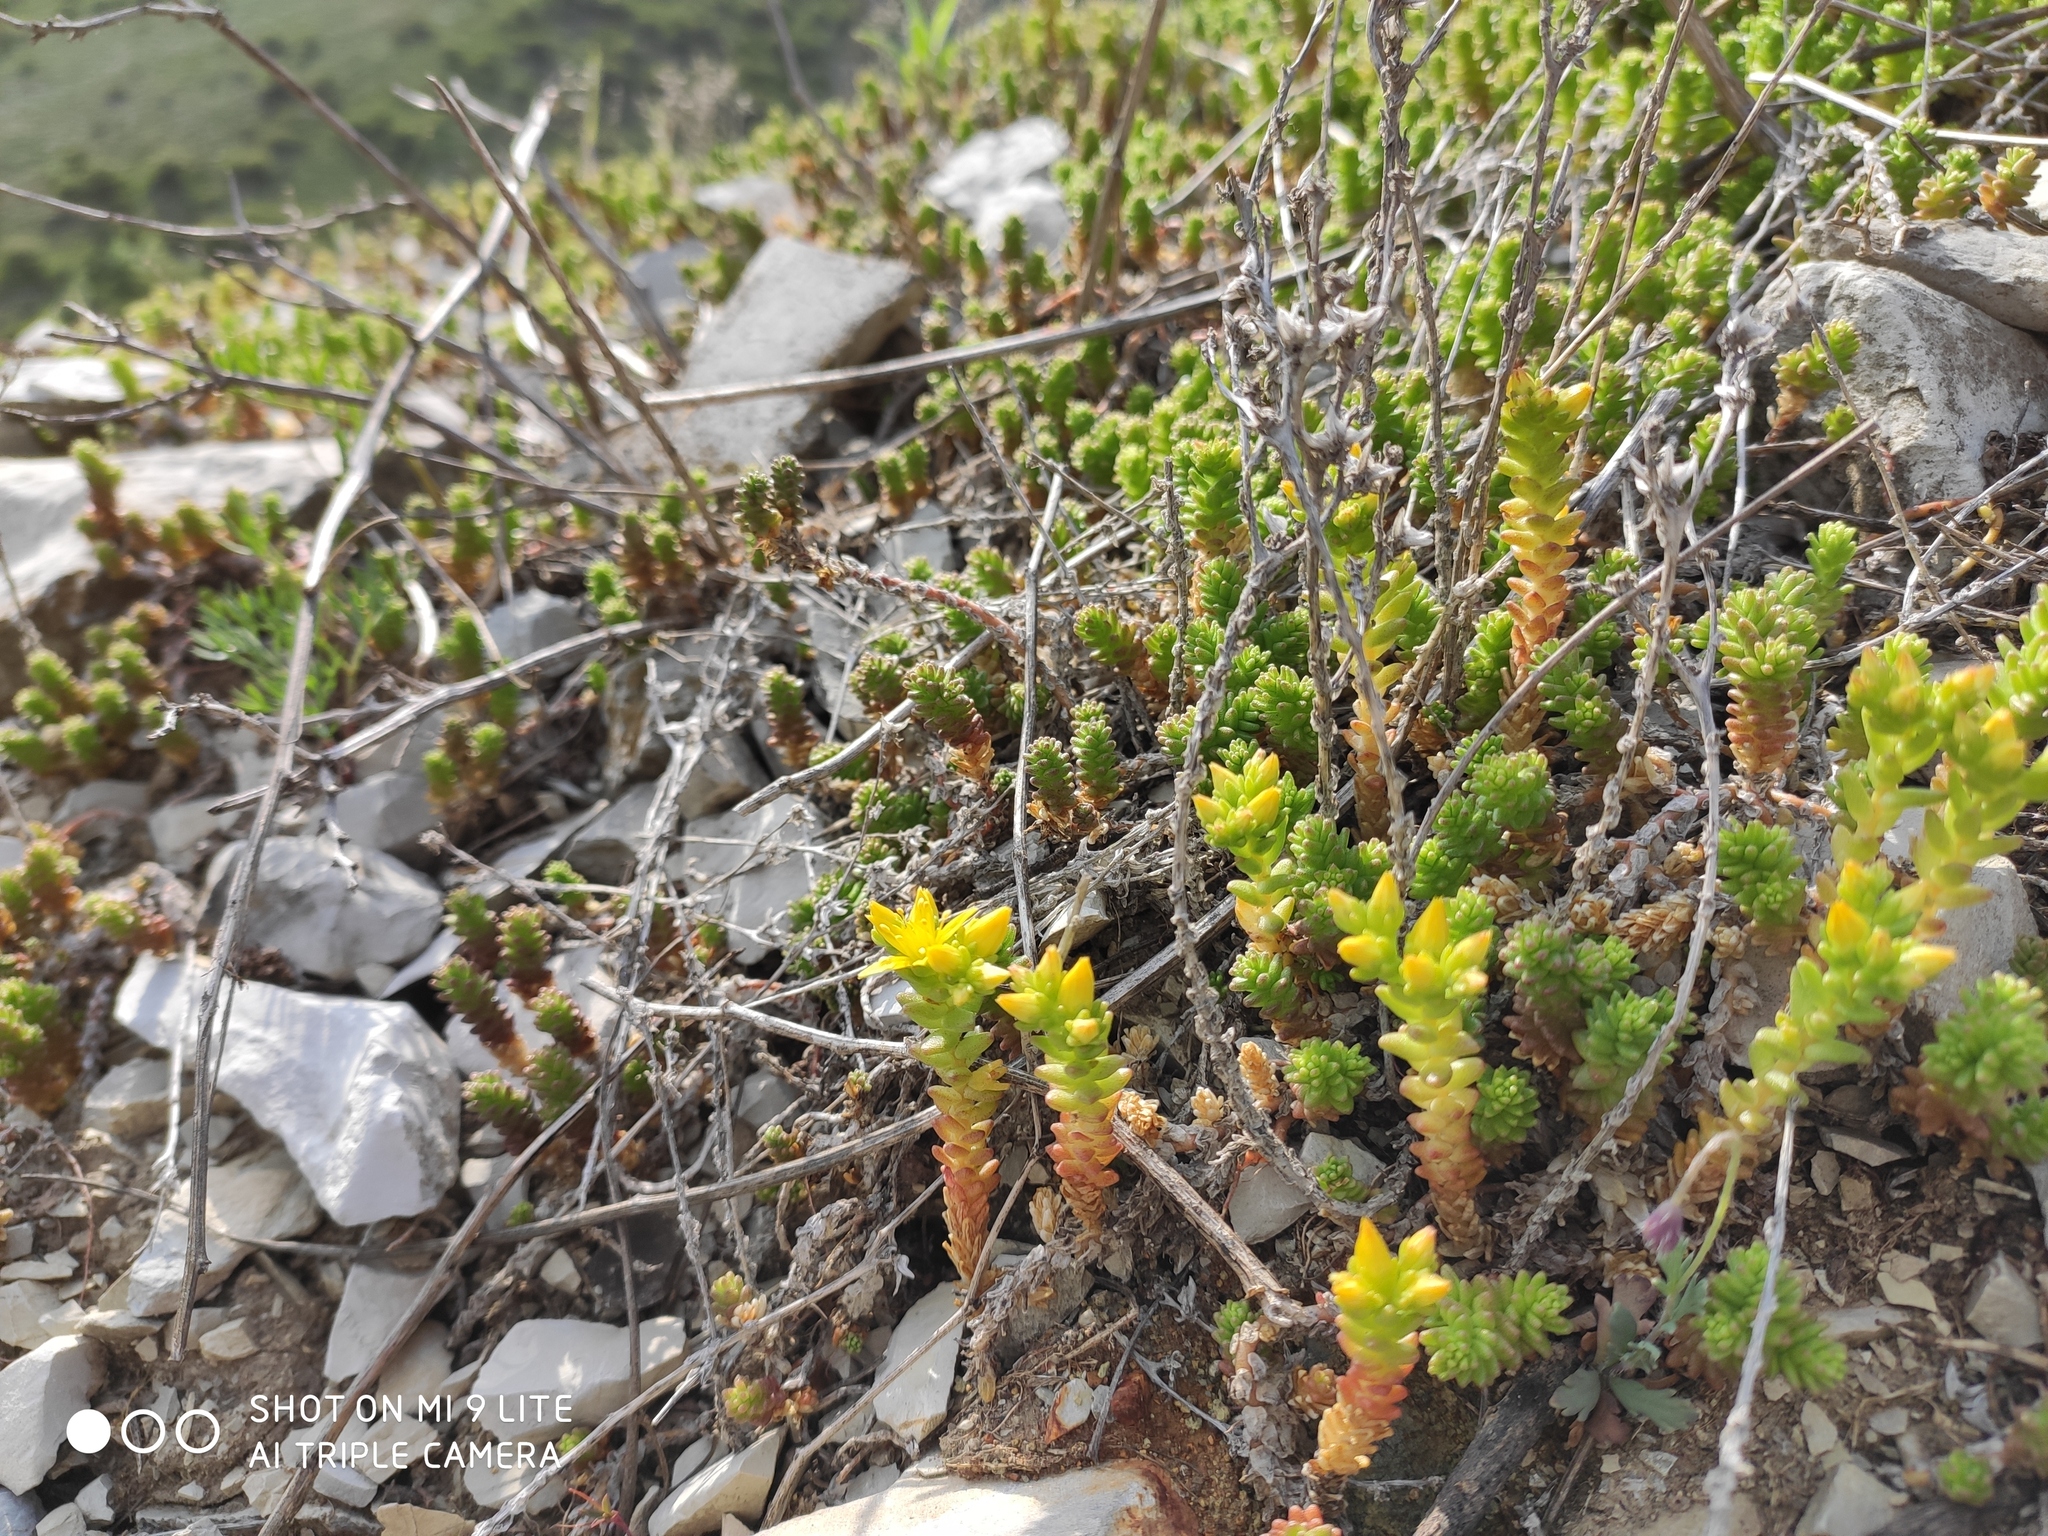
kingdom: Plantae
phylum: Tracheophyta
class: Magnoliopsida
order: Saxifragales
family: Crassulaceae
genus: Sedum
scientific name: Sedum acre
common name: Biting stonecrop
